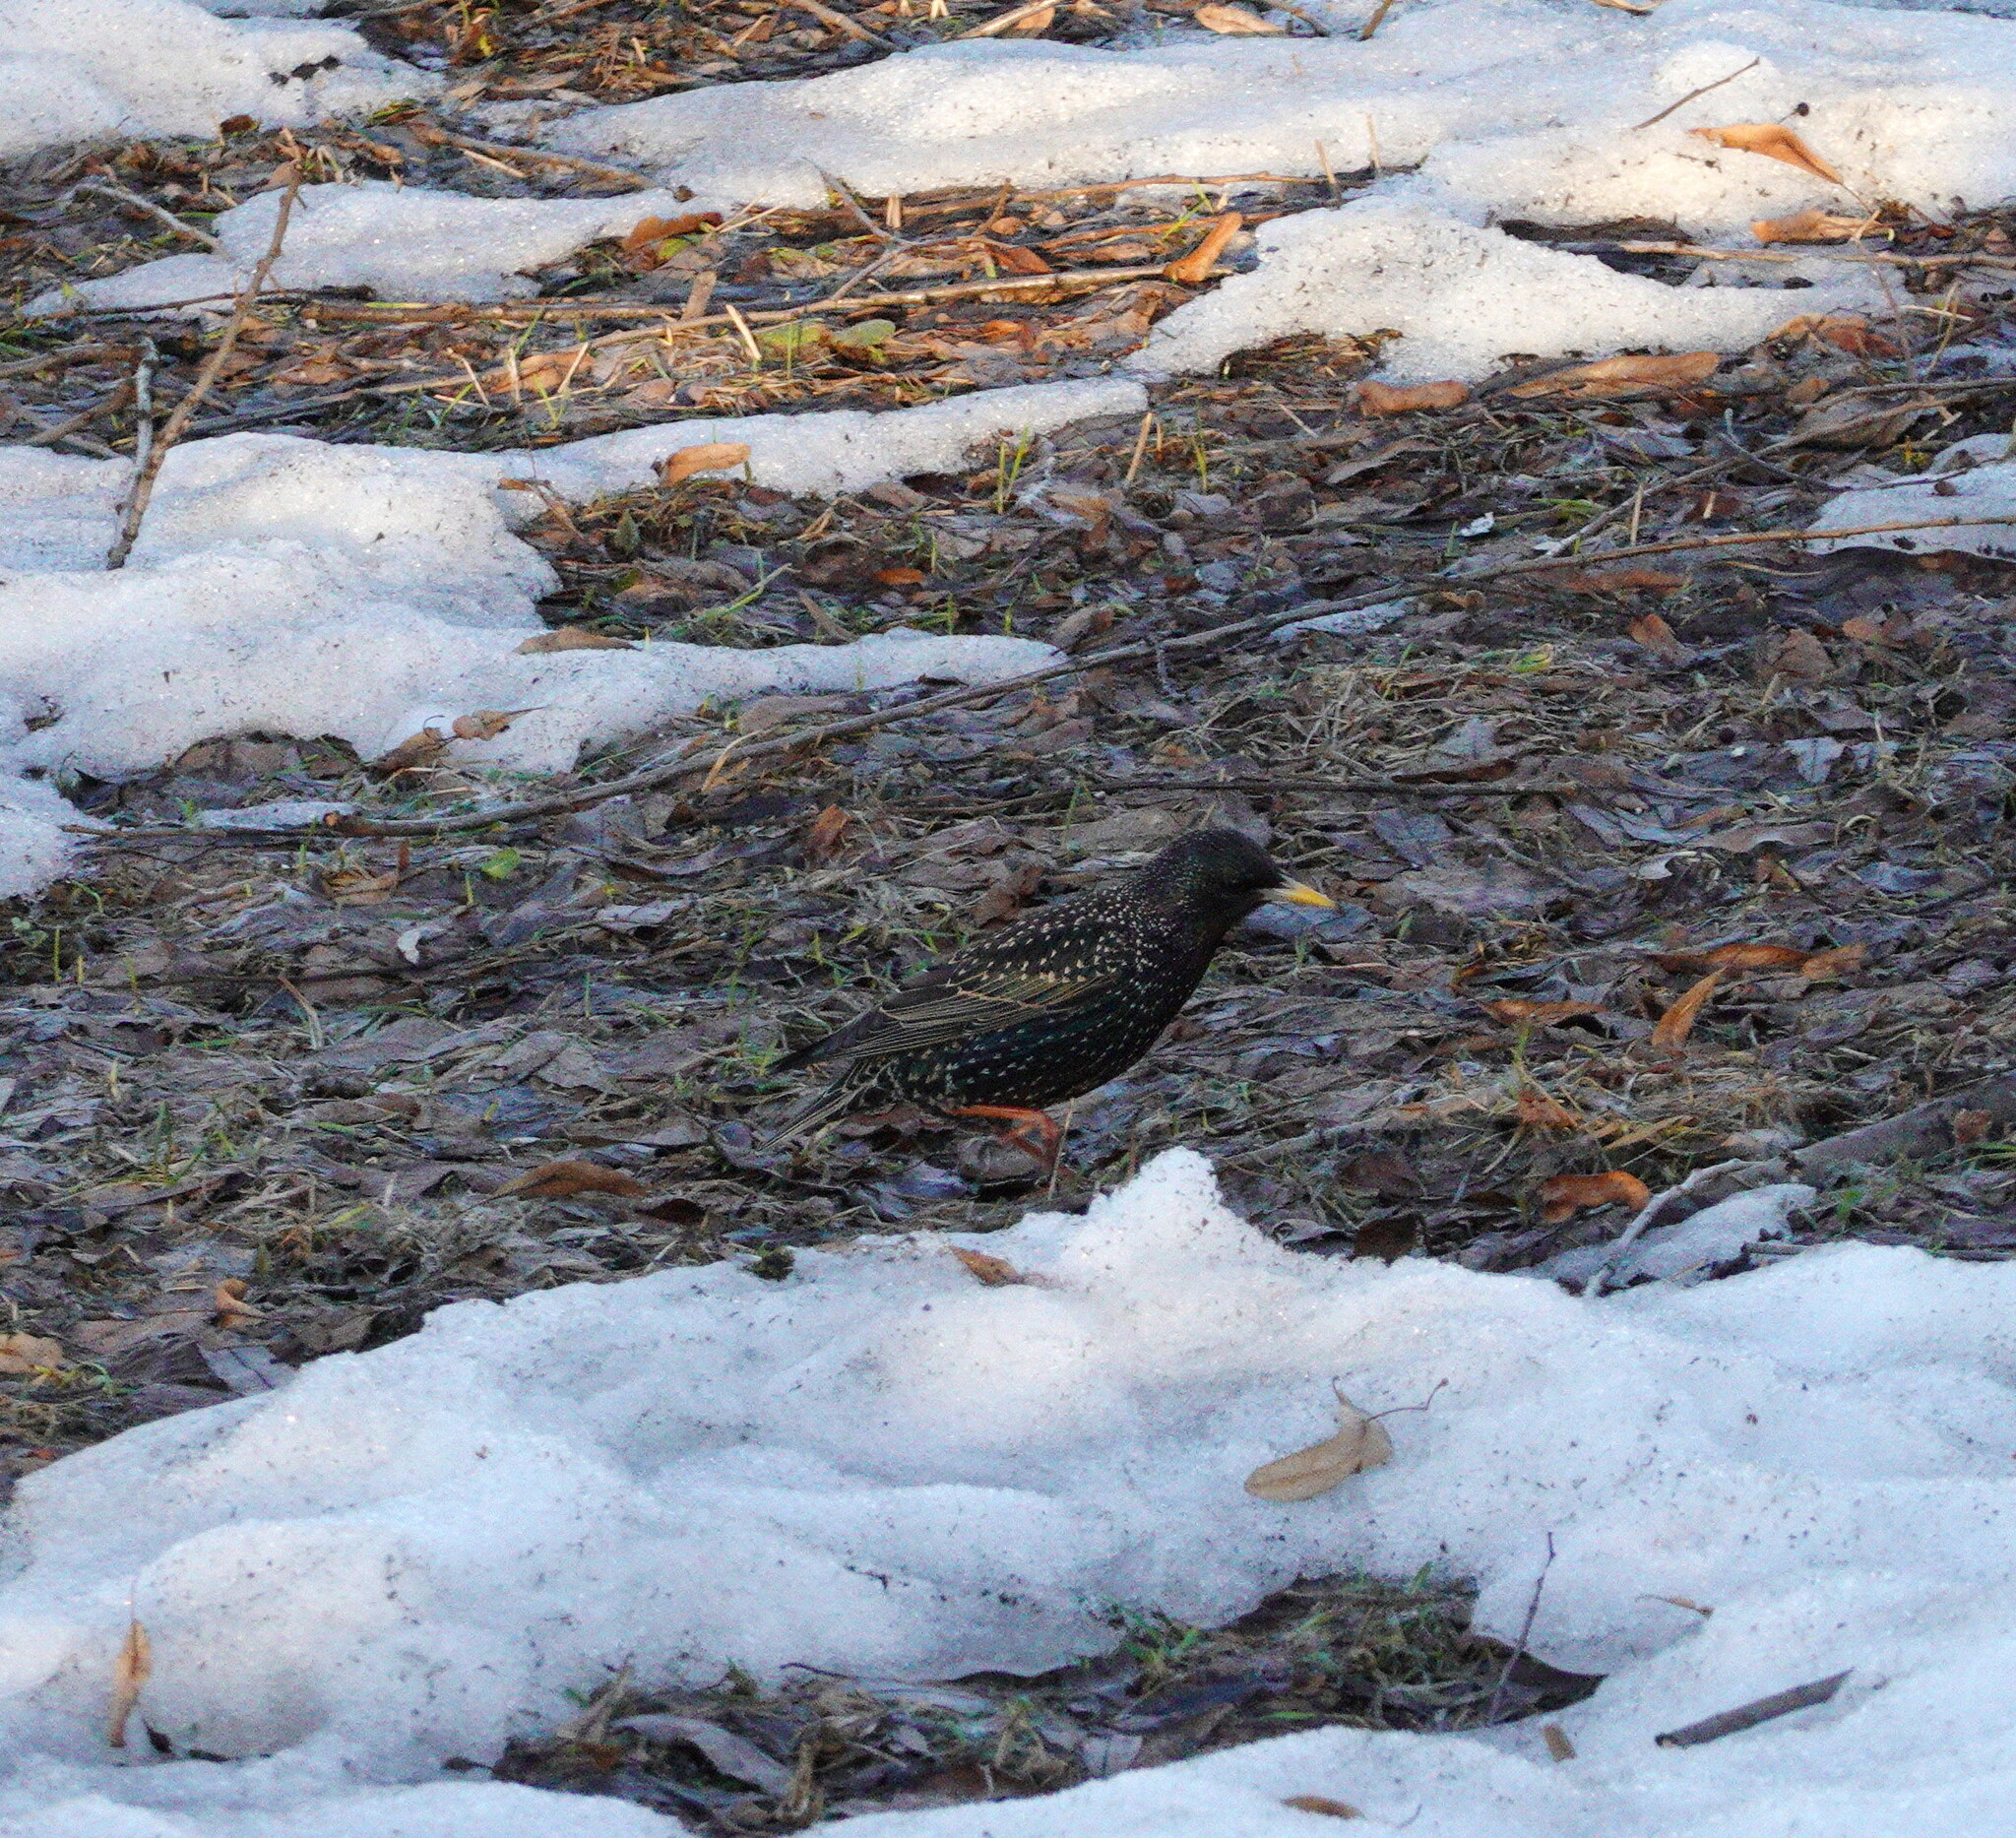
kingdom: Animalia
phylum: Chordata
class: Aves
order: Passeriformes
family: Sturnidae
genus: Sturnus
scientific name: Sturnus vulgaris
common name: Common starling
